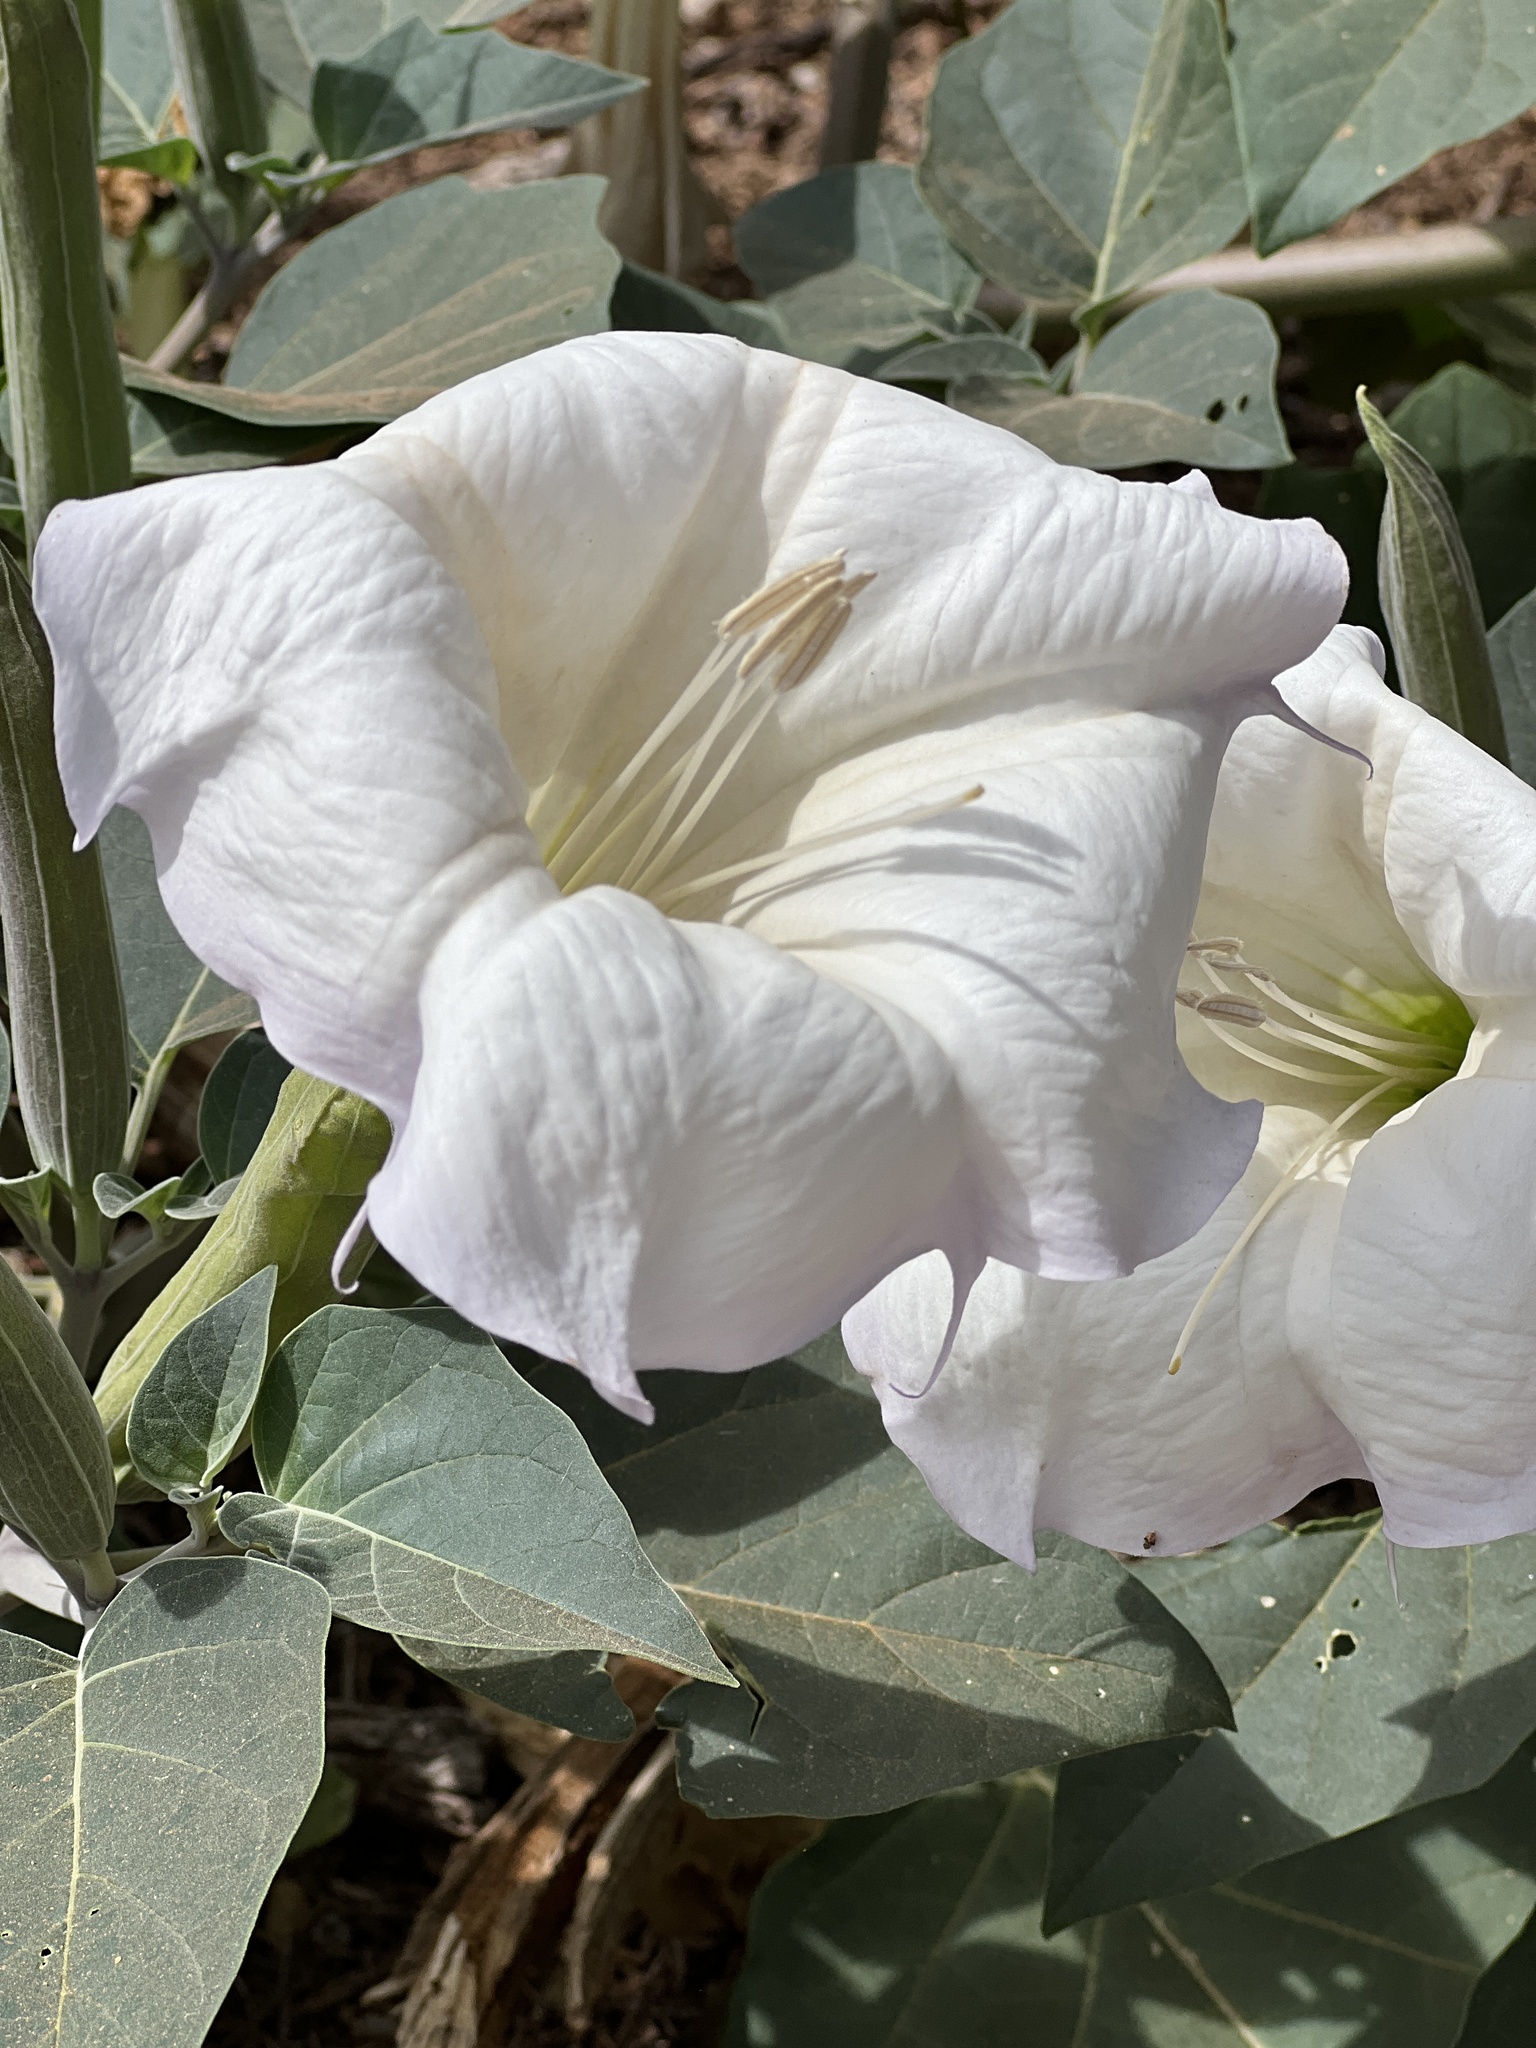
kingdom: Plantae
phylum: Tracheophyta
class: Magnoliopsida
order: Solanales
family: Solanaceae
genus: Datura
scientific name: Datura wrightii
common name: Sacred thorn-apple
